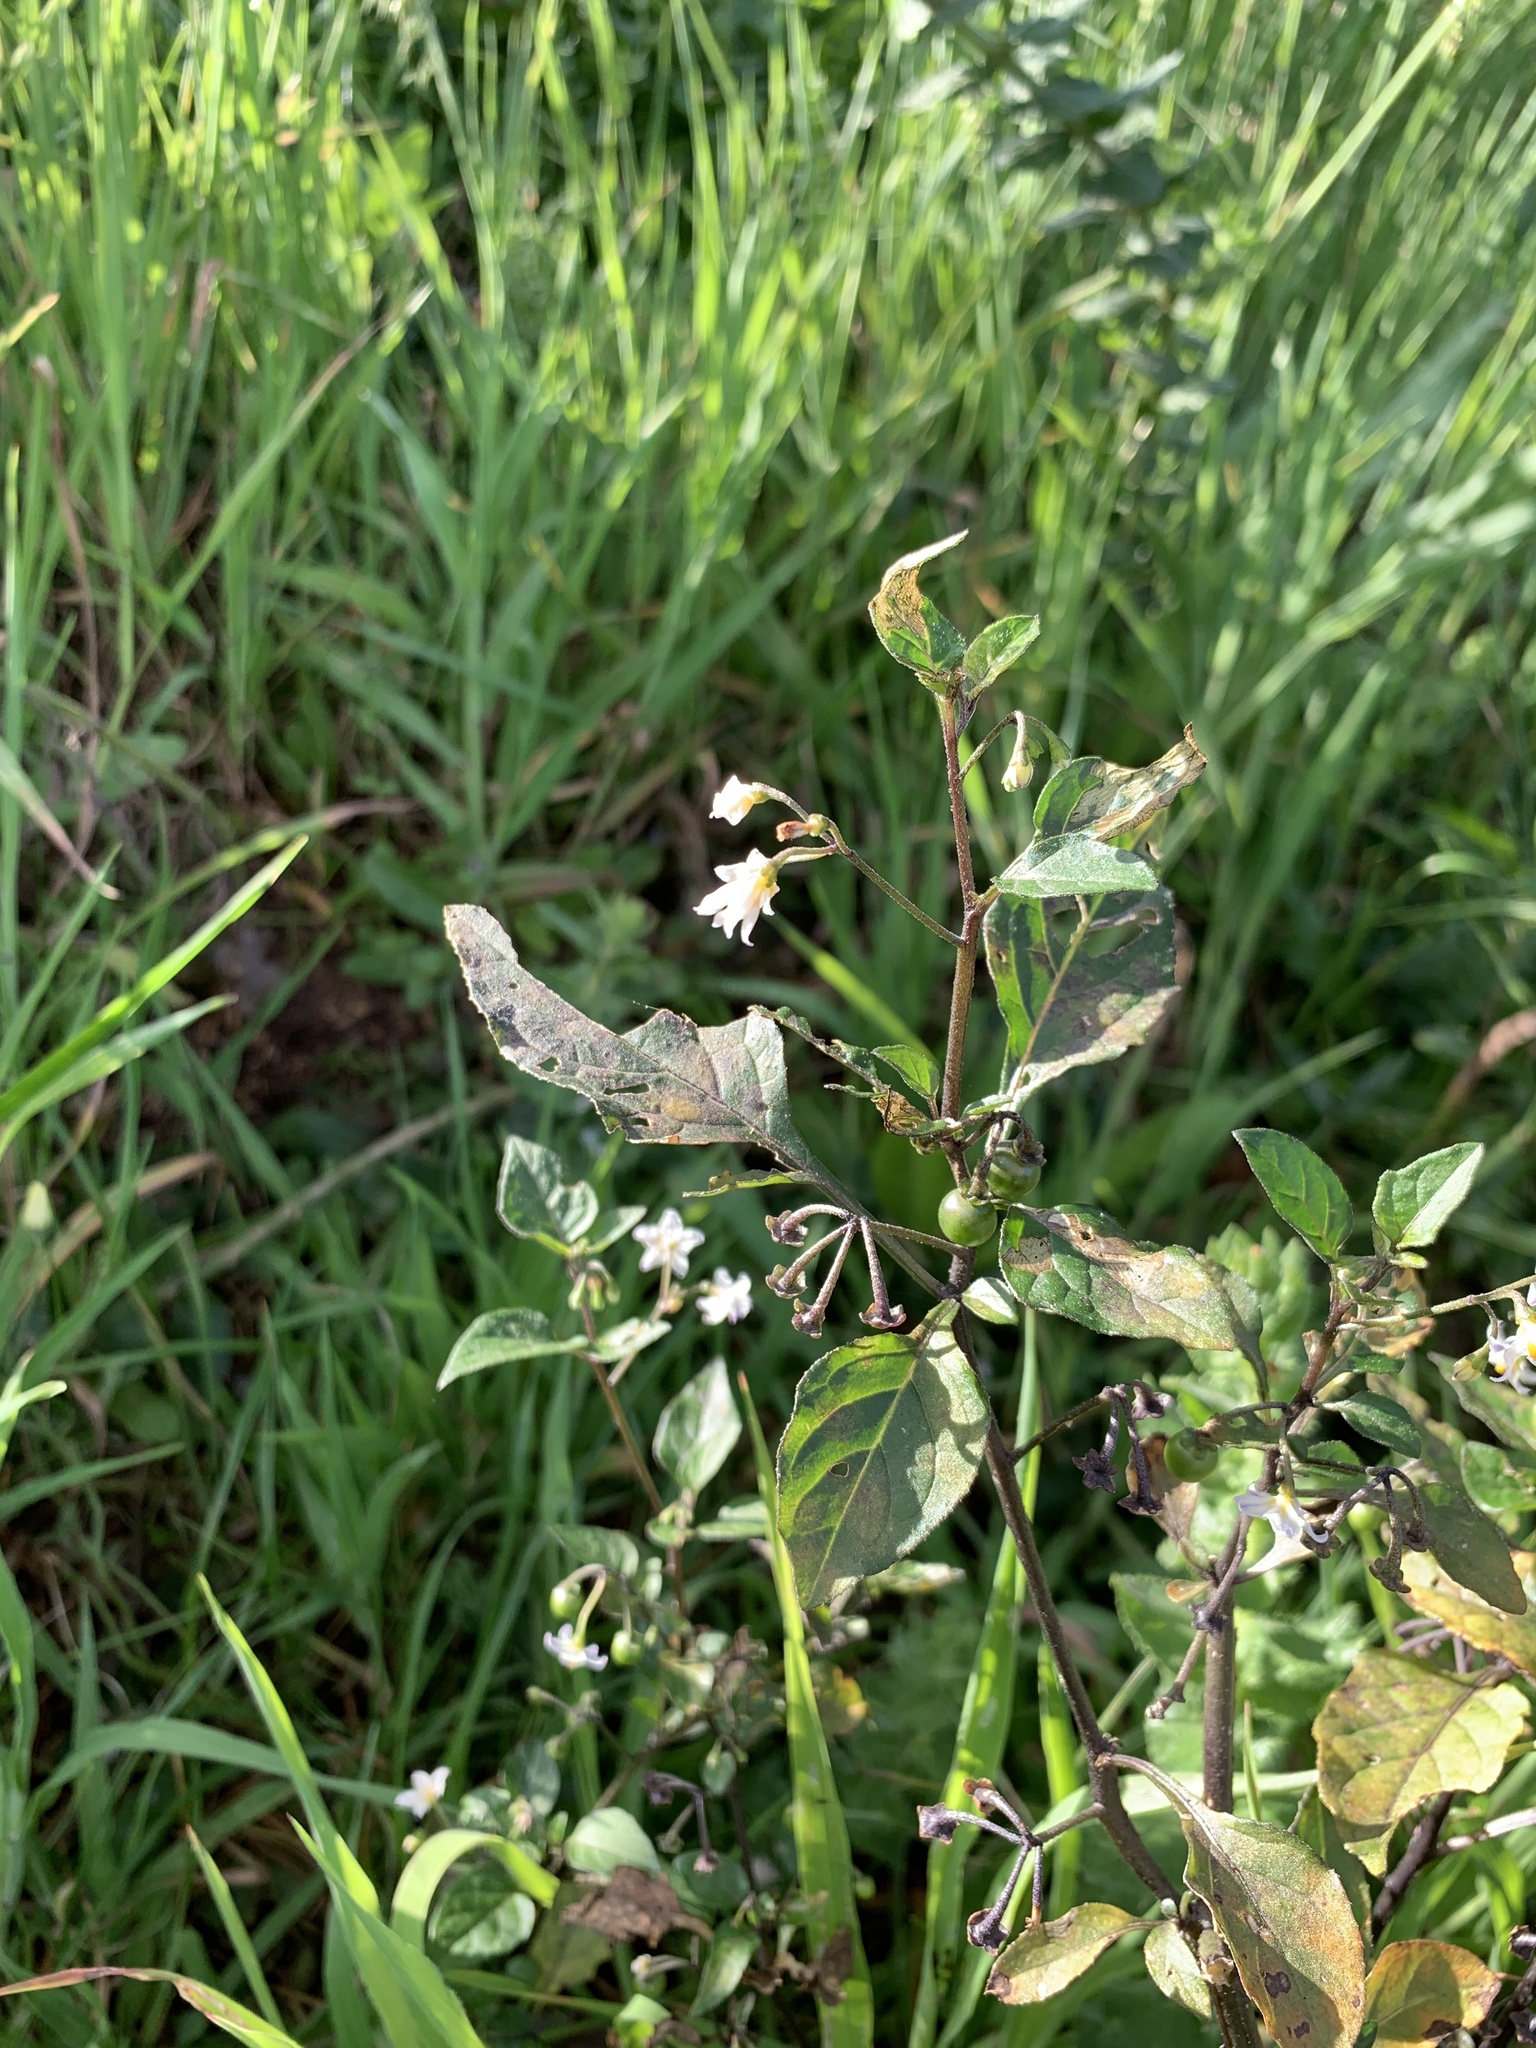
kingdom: Plantae
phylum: Tracheophyta
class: Magnoliopsida
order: Solanales
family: Solanaceae
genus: Solanum
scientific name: Solanum nigrum
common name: Black nightshade
